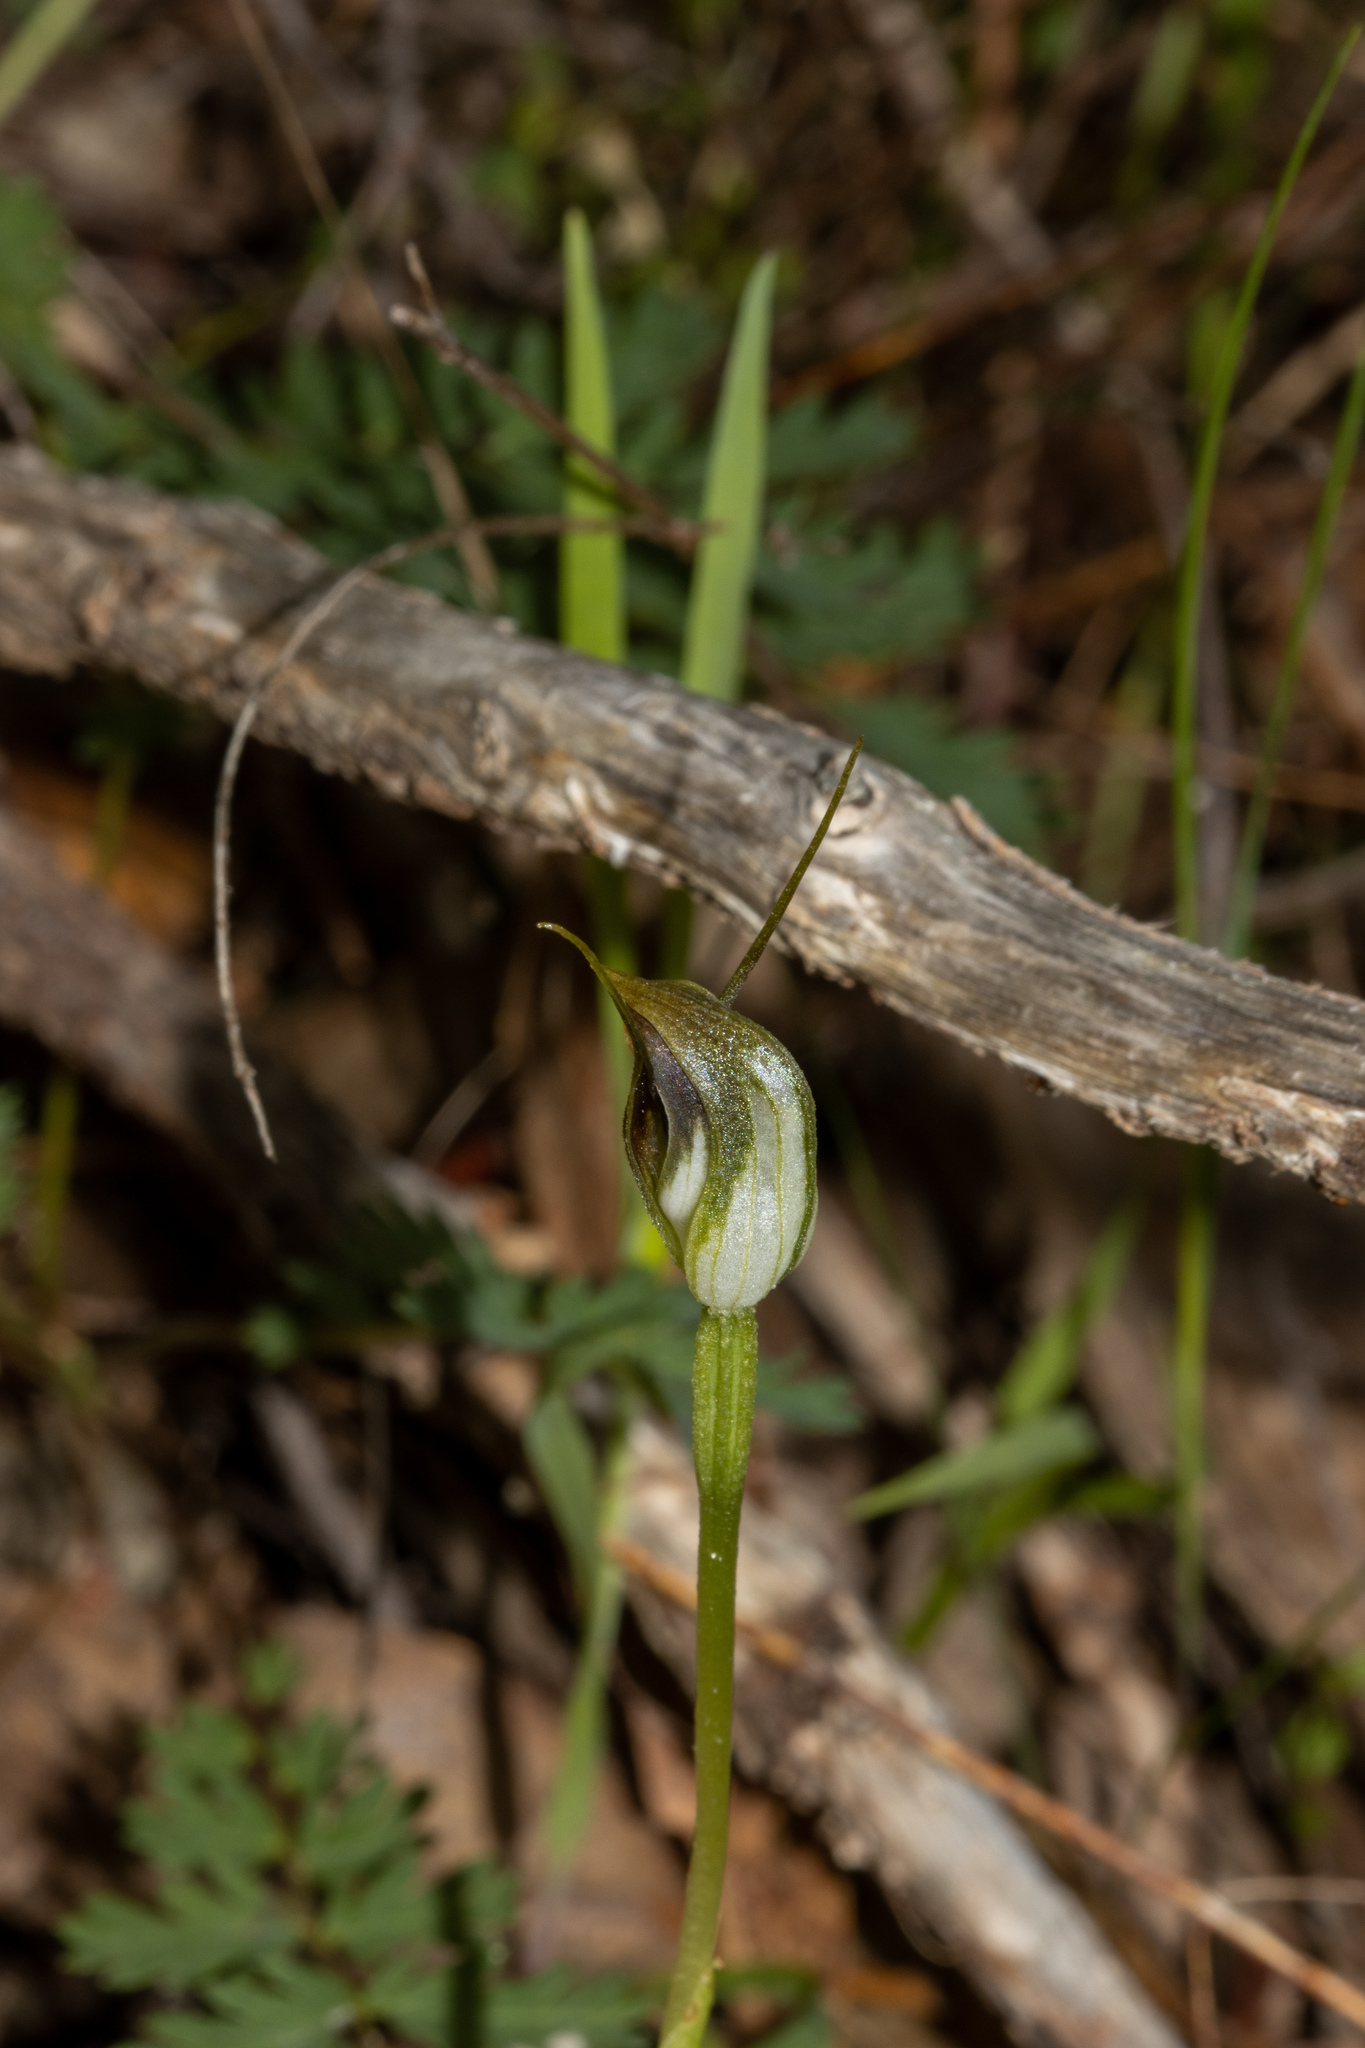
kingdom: Plantae
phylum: Tracheophyta
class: Liliopsida
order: Asparagales
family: Orchidaceae
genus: Pterostylis
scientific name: Pterostylis pedunculata
